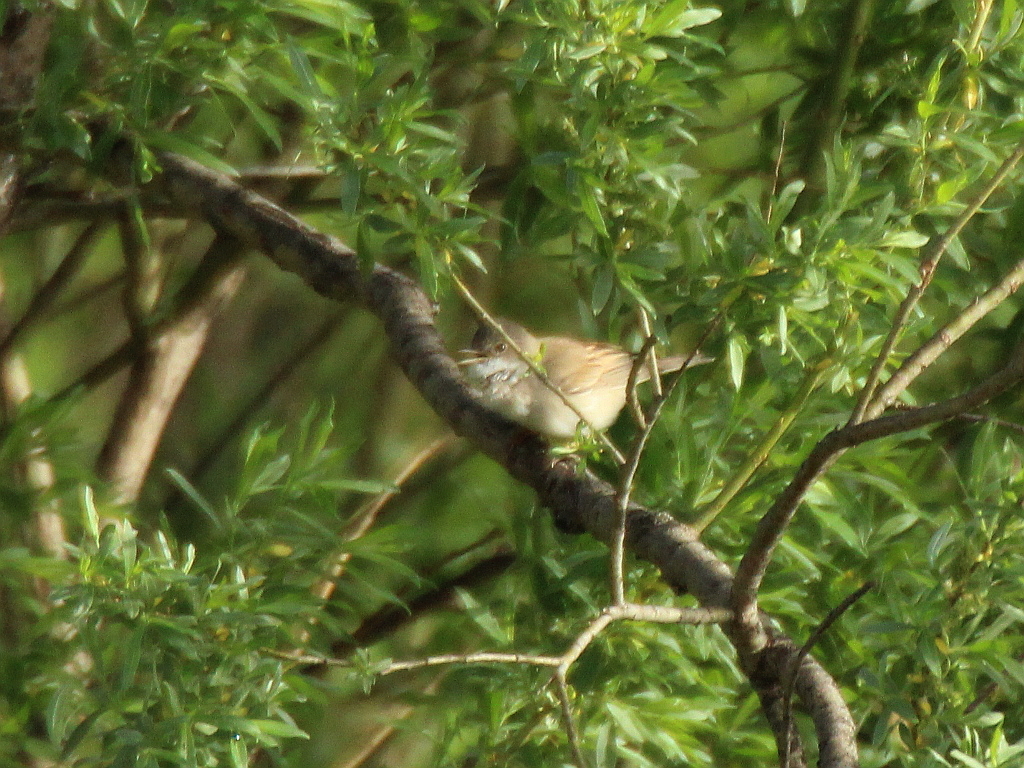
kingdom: Animalia
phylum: Chordata
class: Aves
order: Passeriformes
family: Sylviidae
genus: Sylvia
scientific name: Sylvia communis
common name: Common whitethroat
